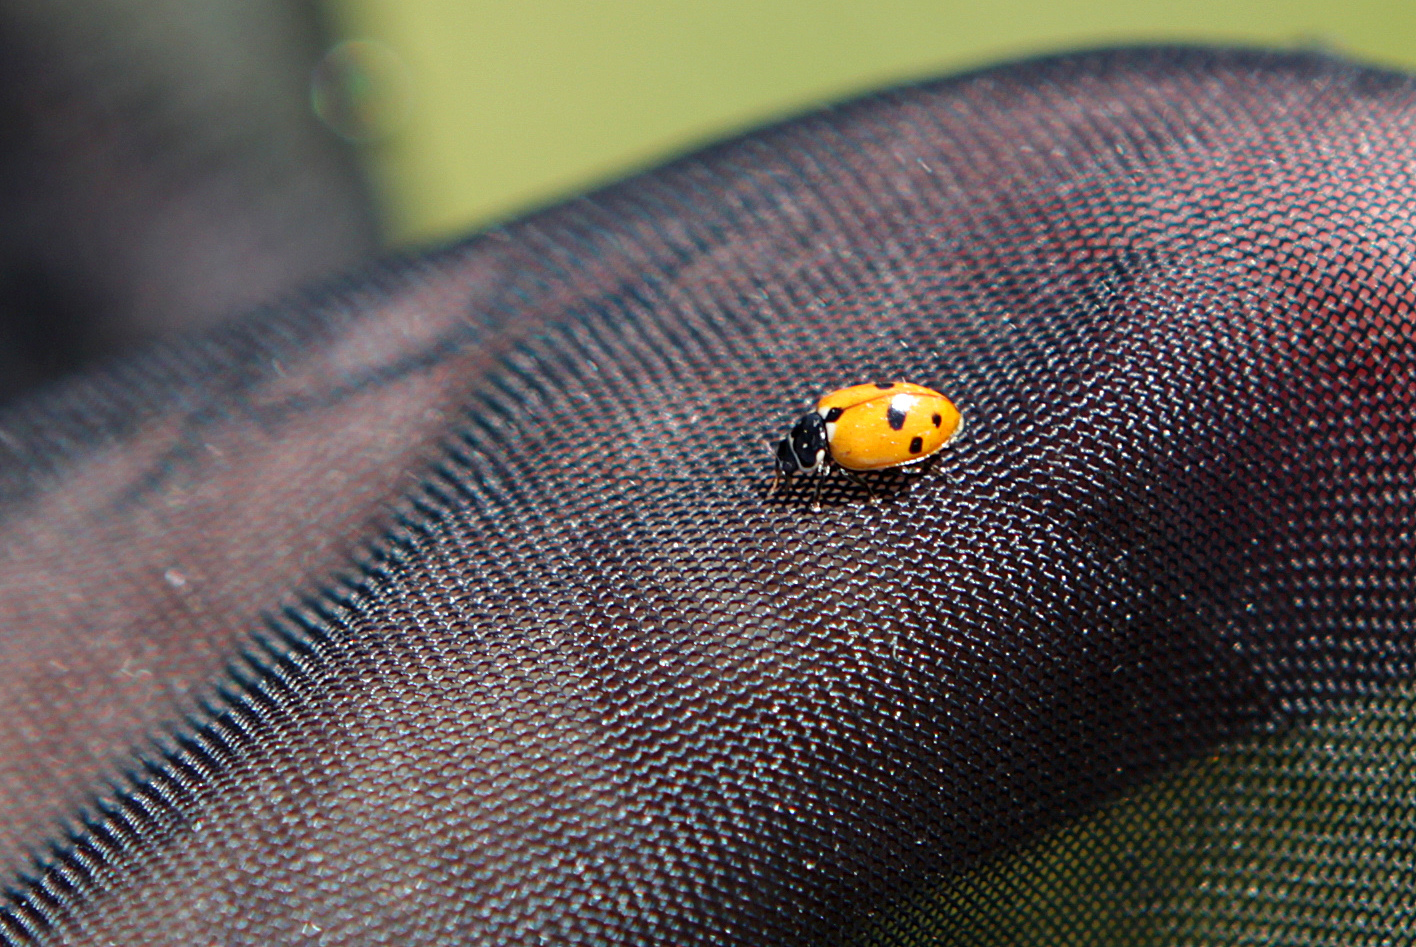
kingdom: Animalia
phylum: Arthropoda
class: Insecta
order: Coleoptera
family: Coccinellidae
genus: Hippodamia
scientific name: Hippodamia variegata
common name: Ladybird beetle
